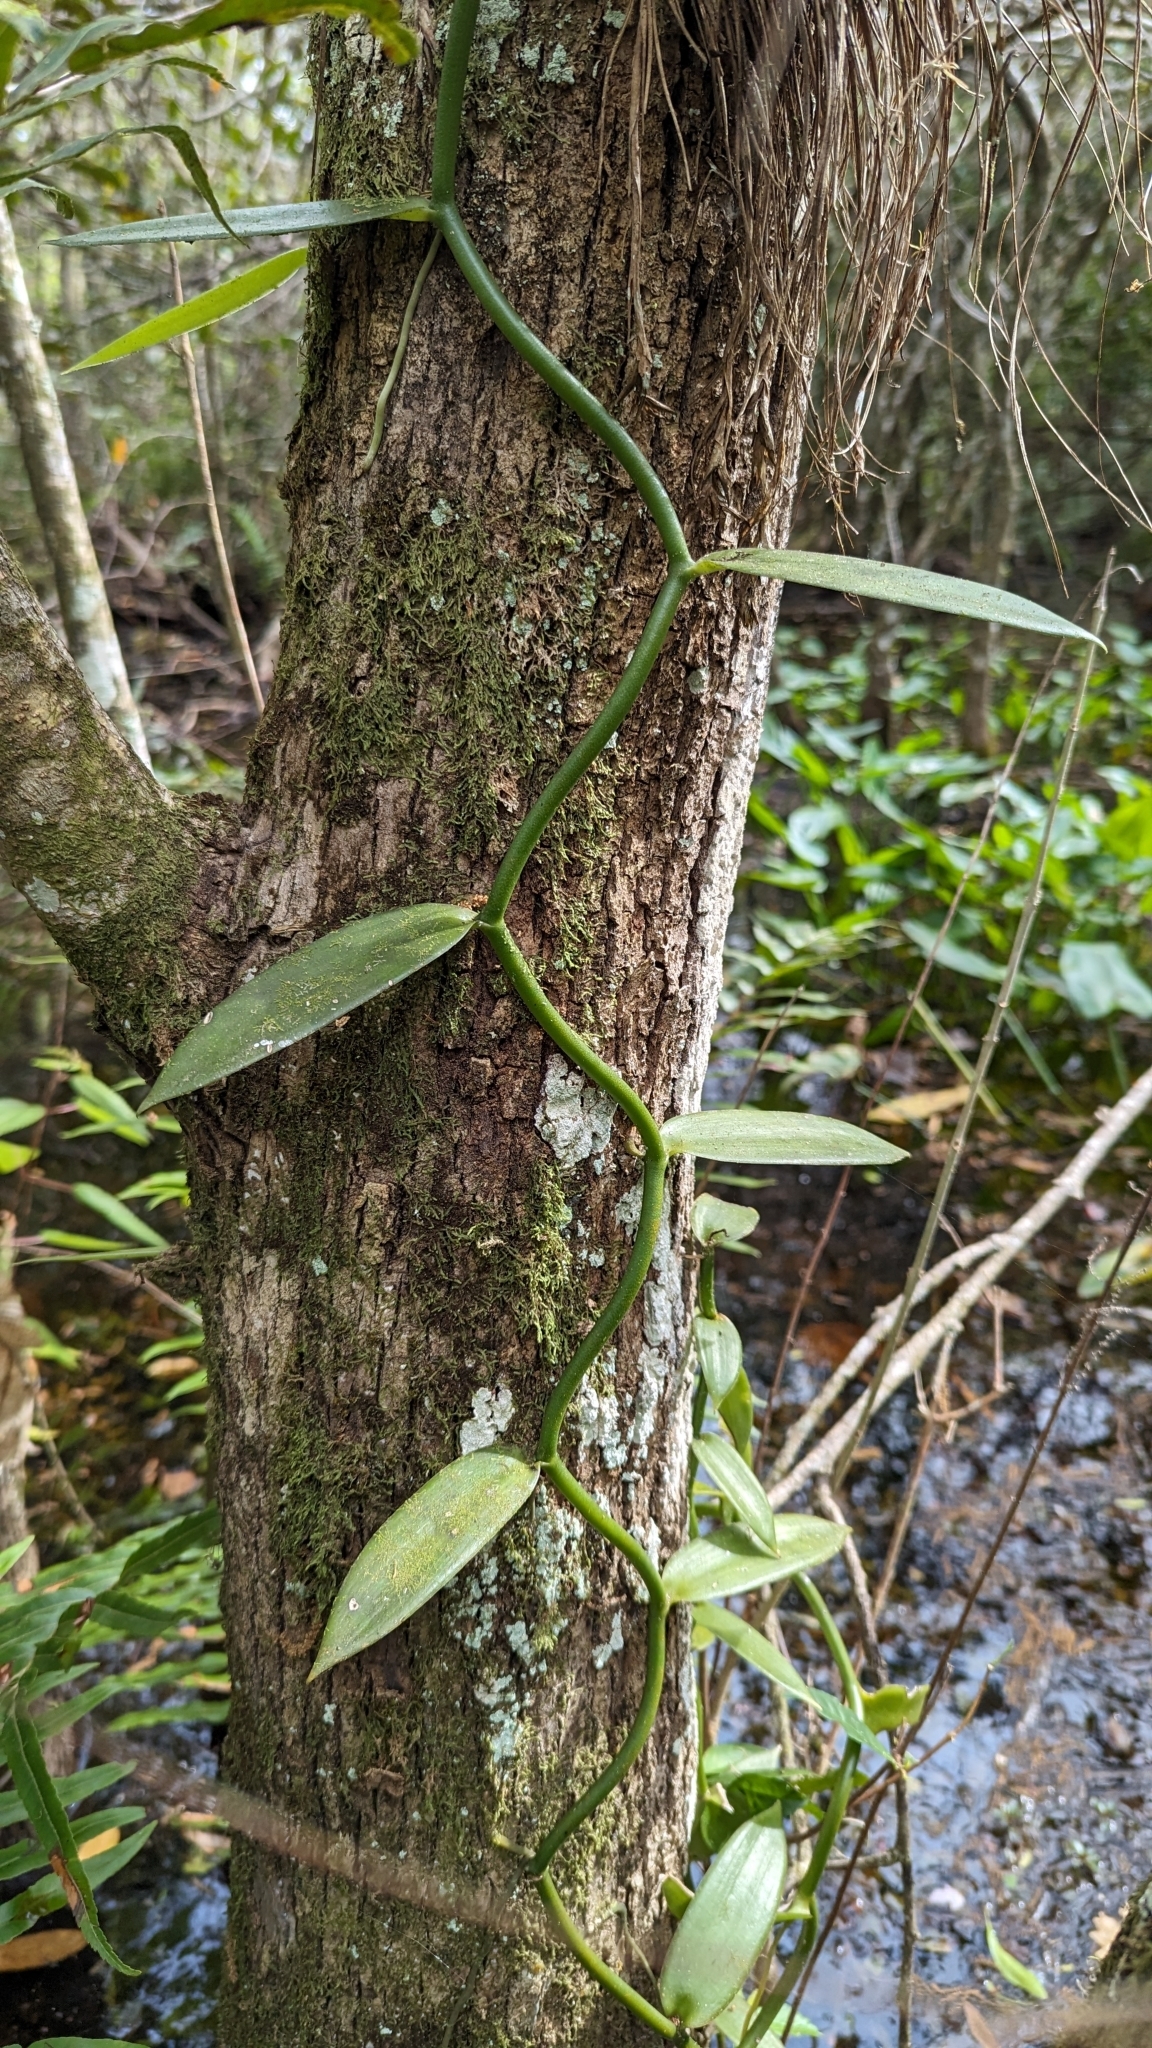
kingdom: Plantae
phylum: Tracheophyta
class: Liliopsida
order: Asparagales
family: Orchidaceae
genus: Vanilla
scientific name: Vanilla phaeantha
